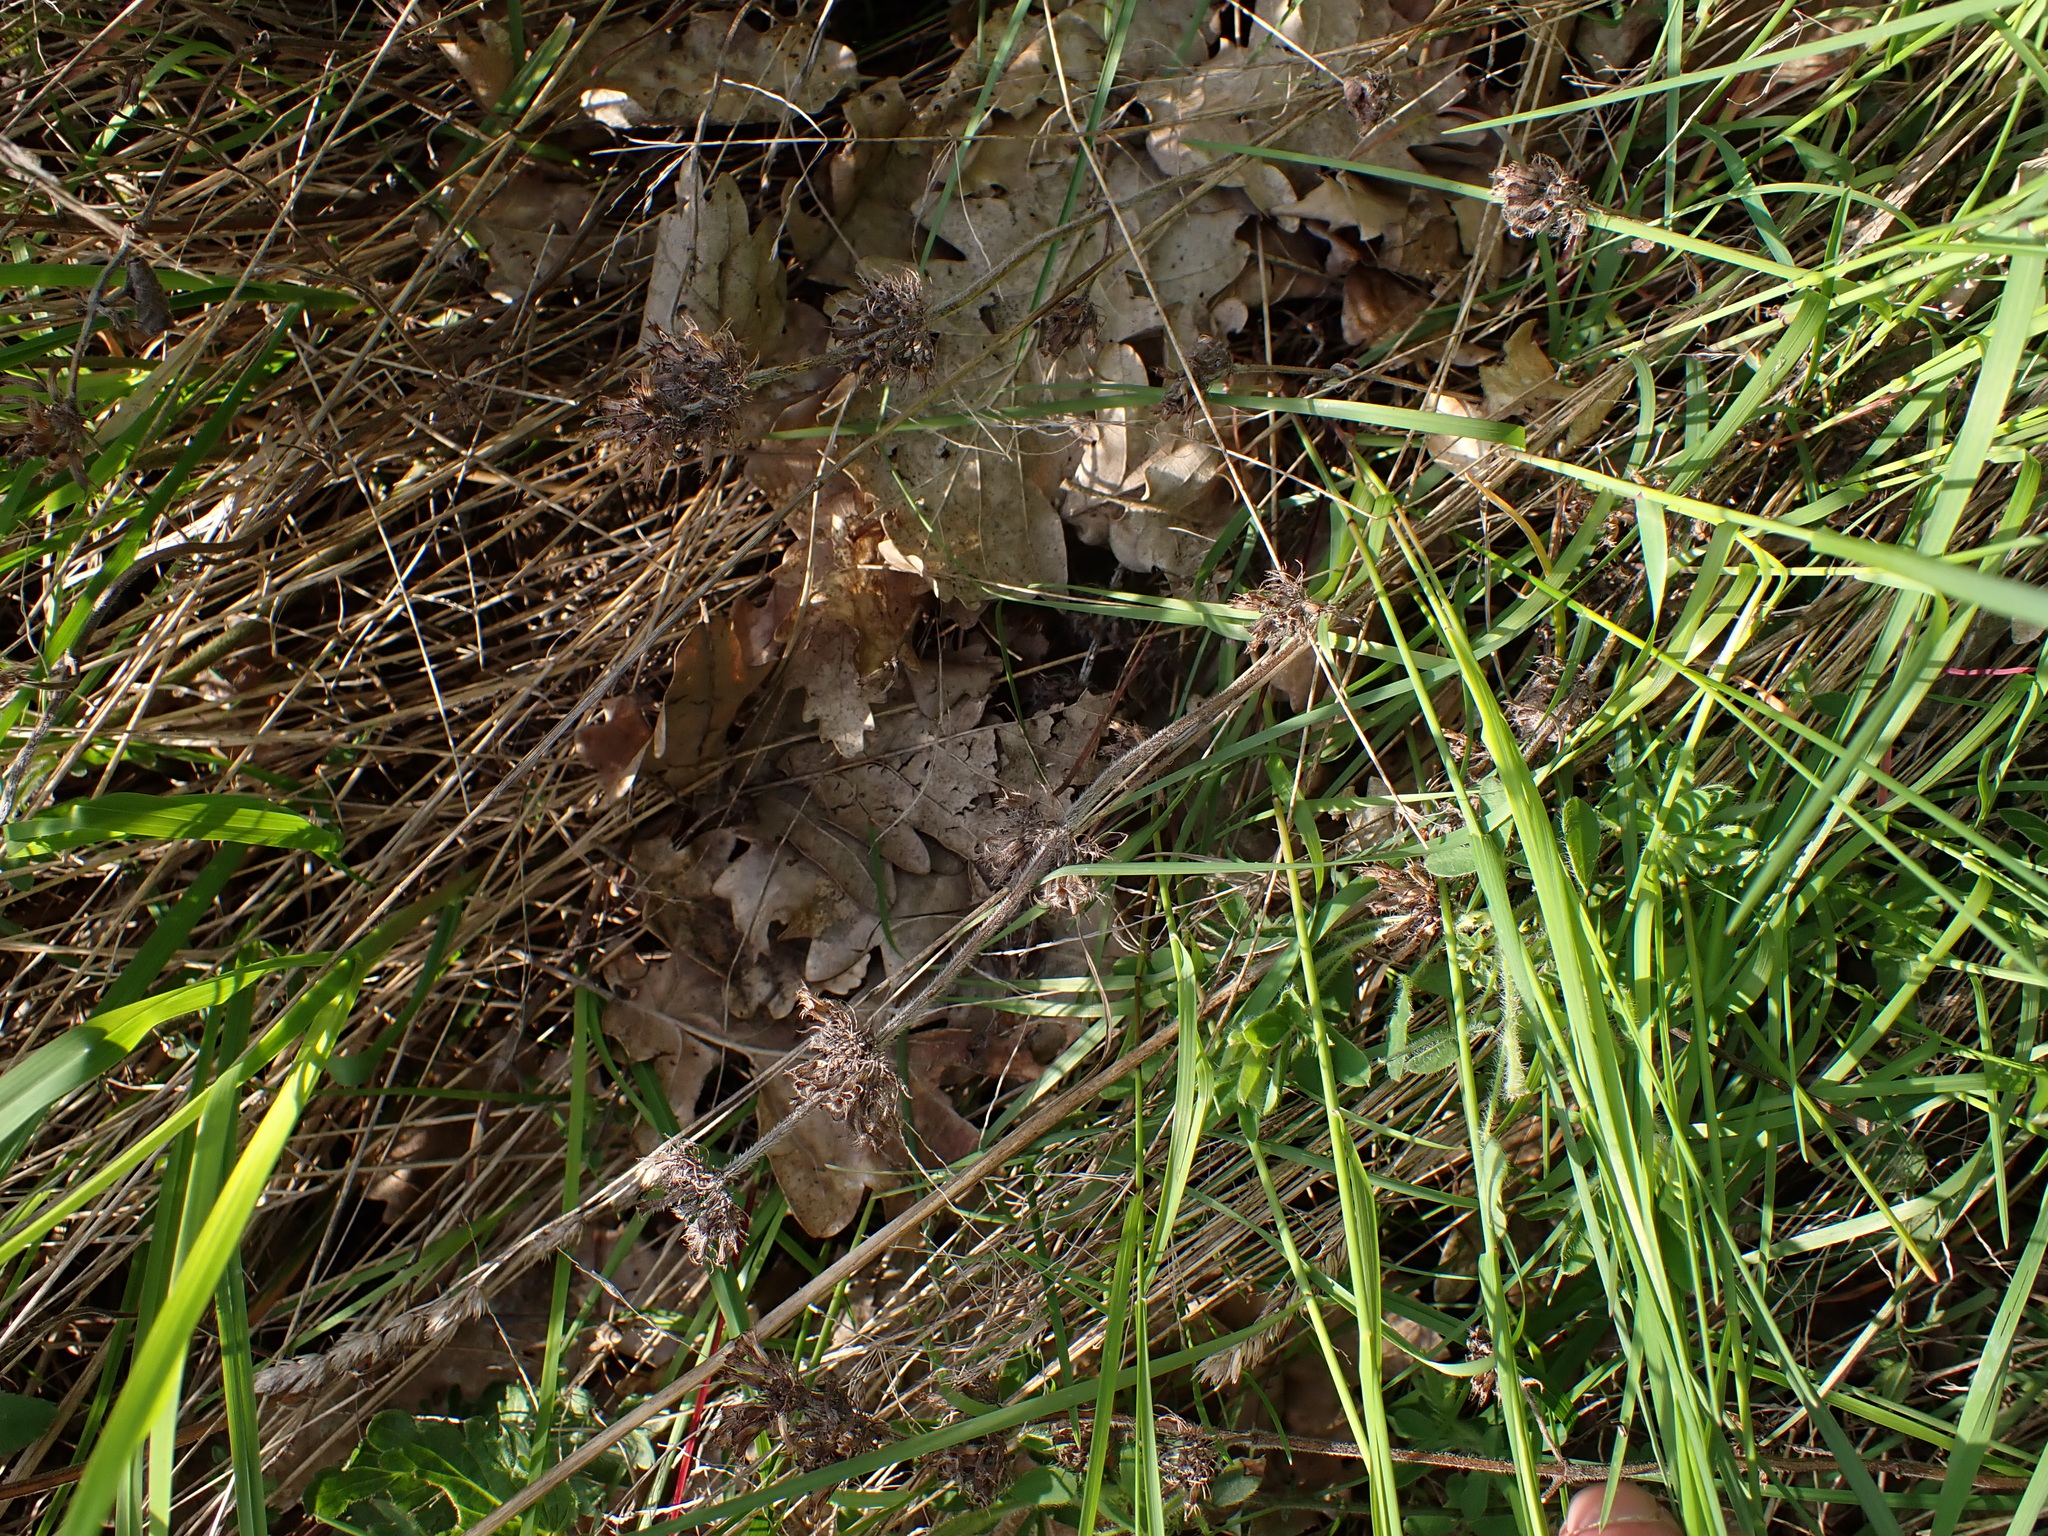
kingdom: Plantae
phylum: Tracheophyta
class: Magnoliopsida
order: Lamiales
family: Lamiaceae
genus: Clinopodium
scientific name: Clinopodium vulgare
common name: Wild basil
